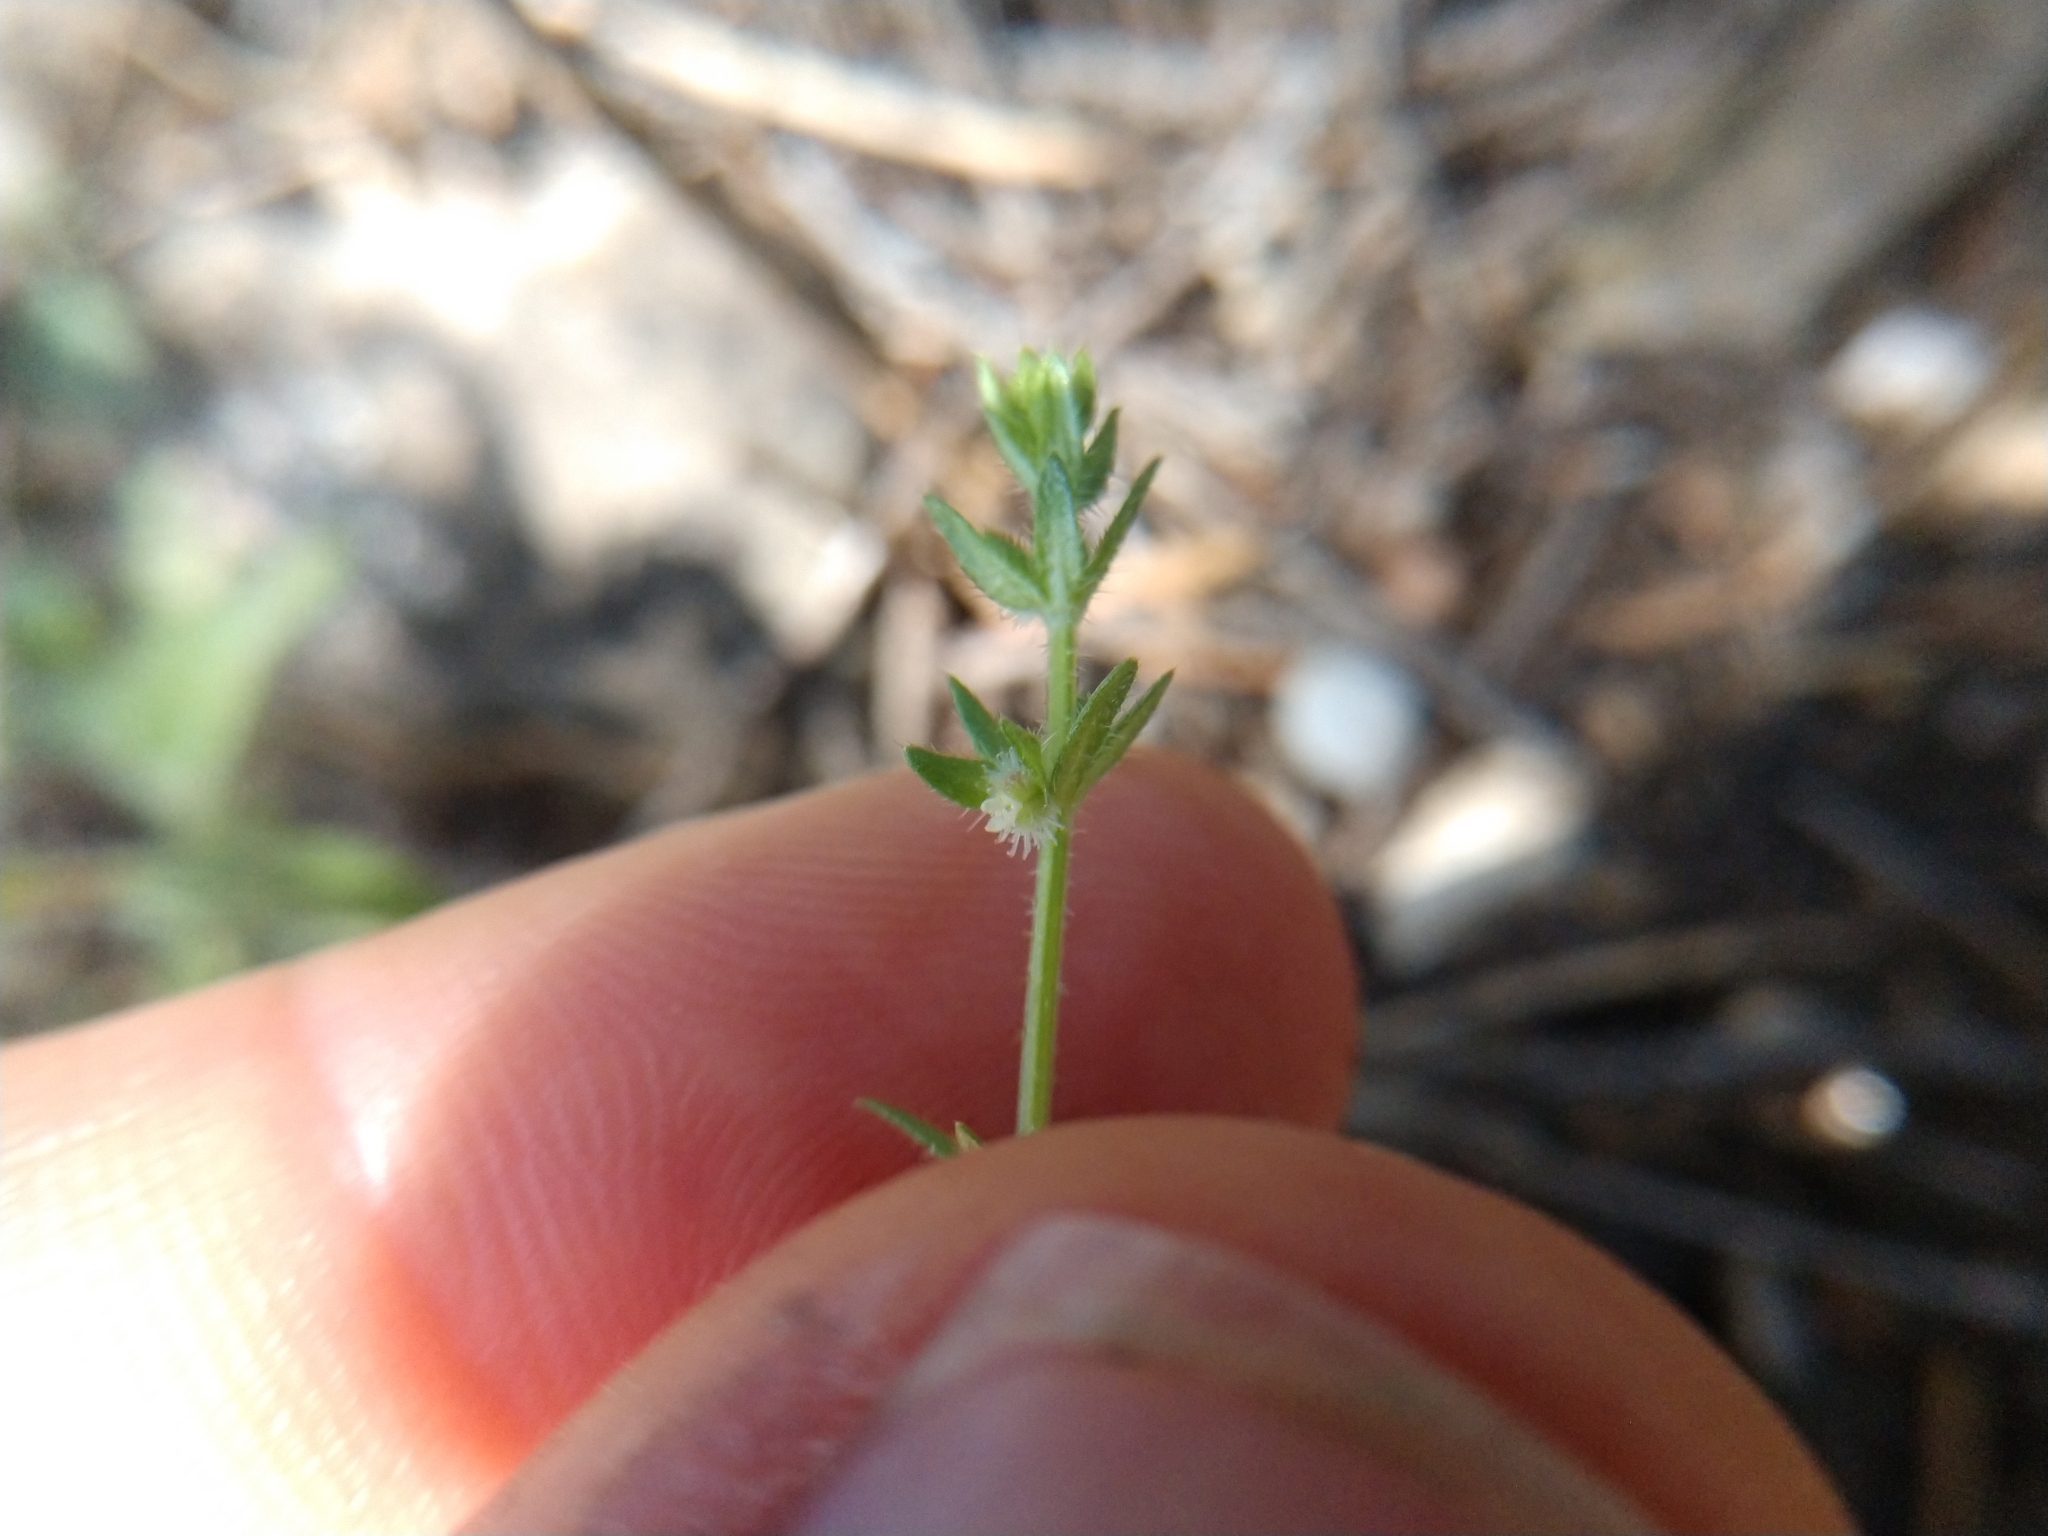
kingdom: Plantae
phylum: Tracheophyta
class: Magnoliopsida
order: Gentianales
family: Rubiaceae
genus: Galium
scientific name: Galium virgatum
